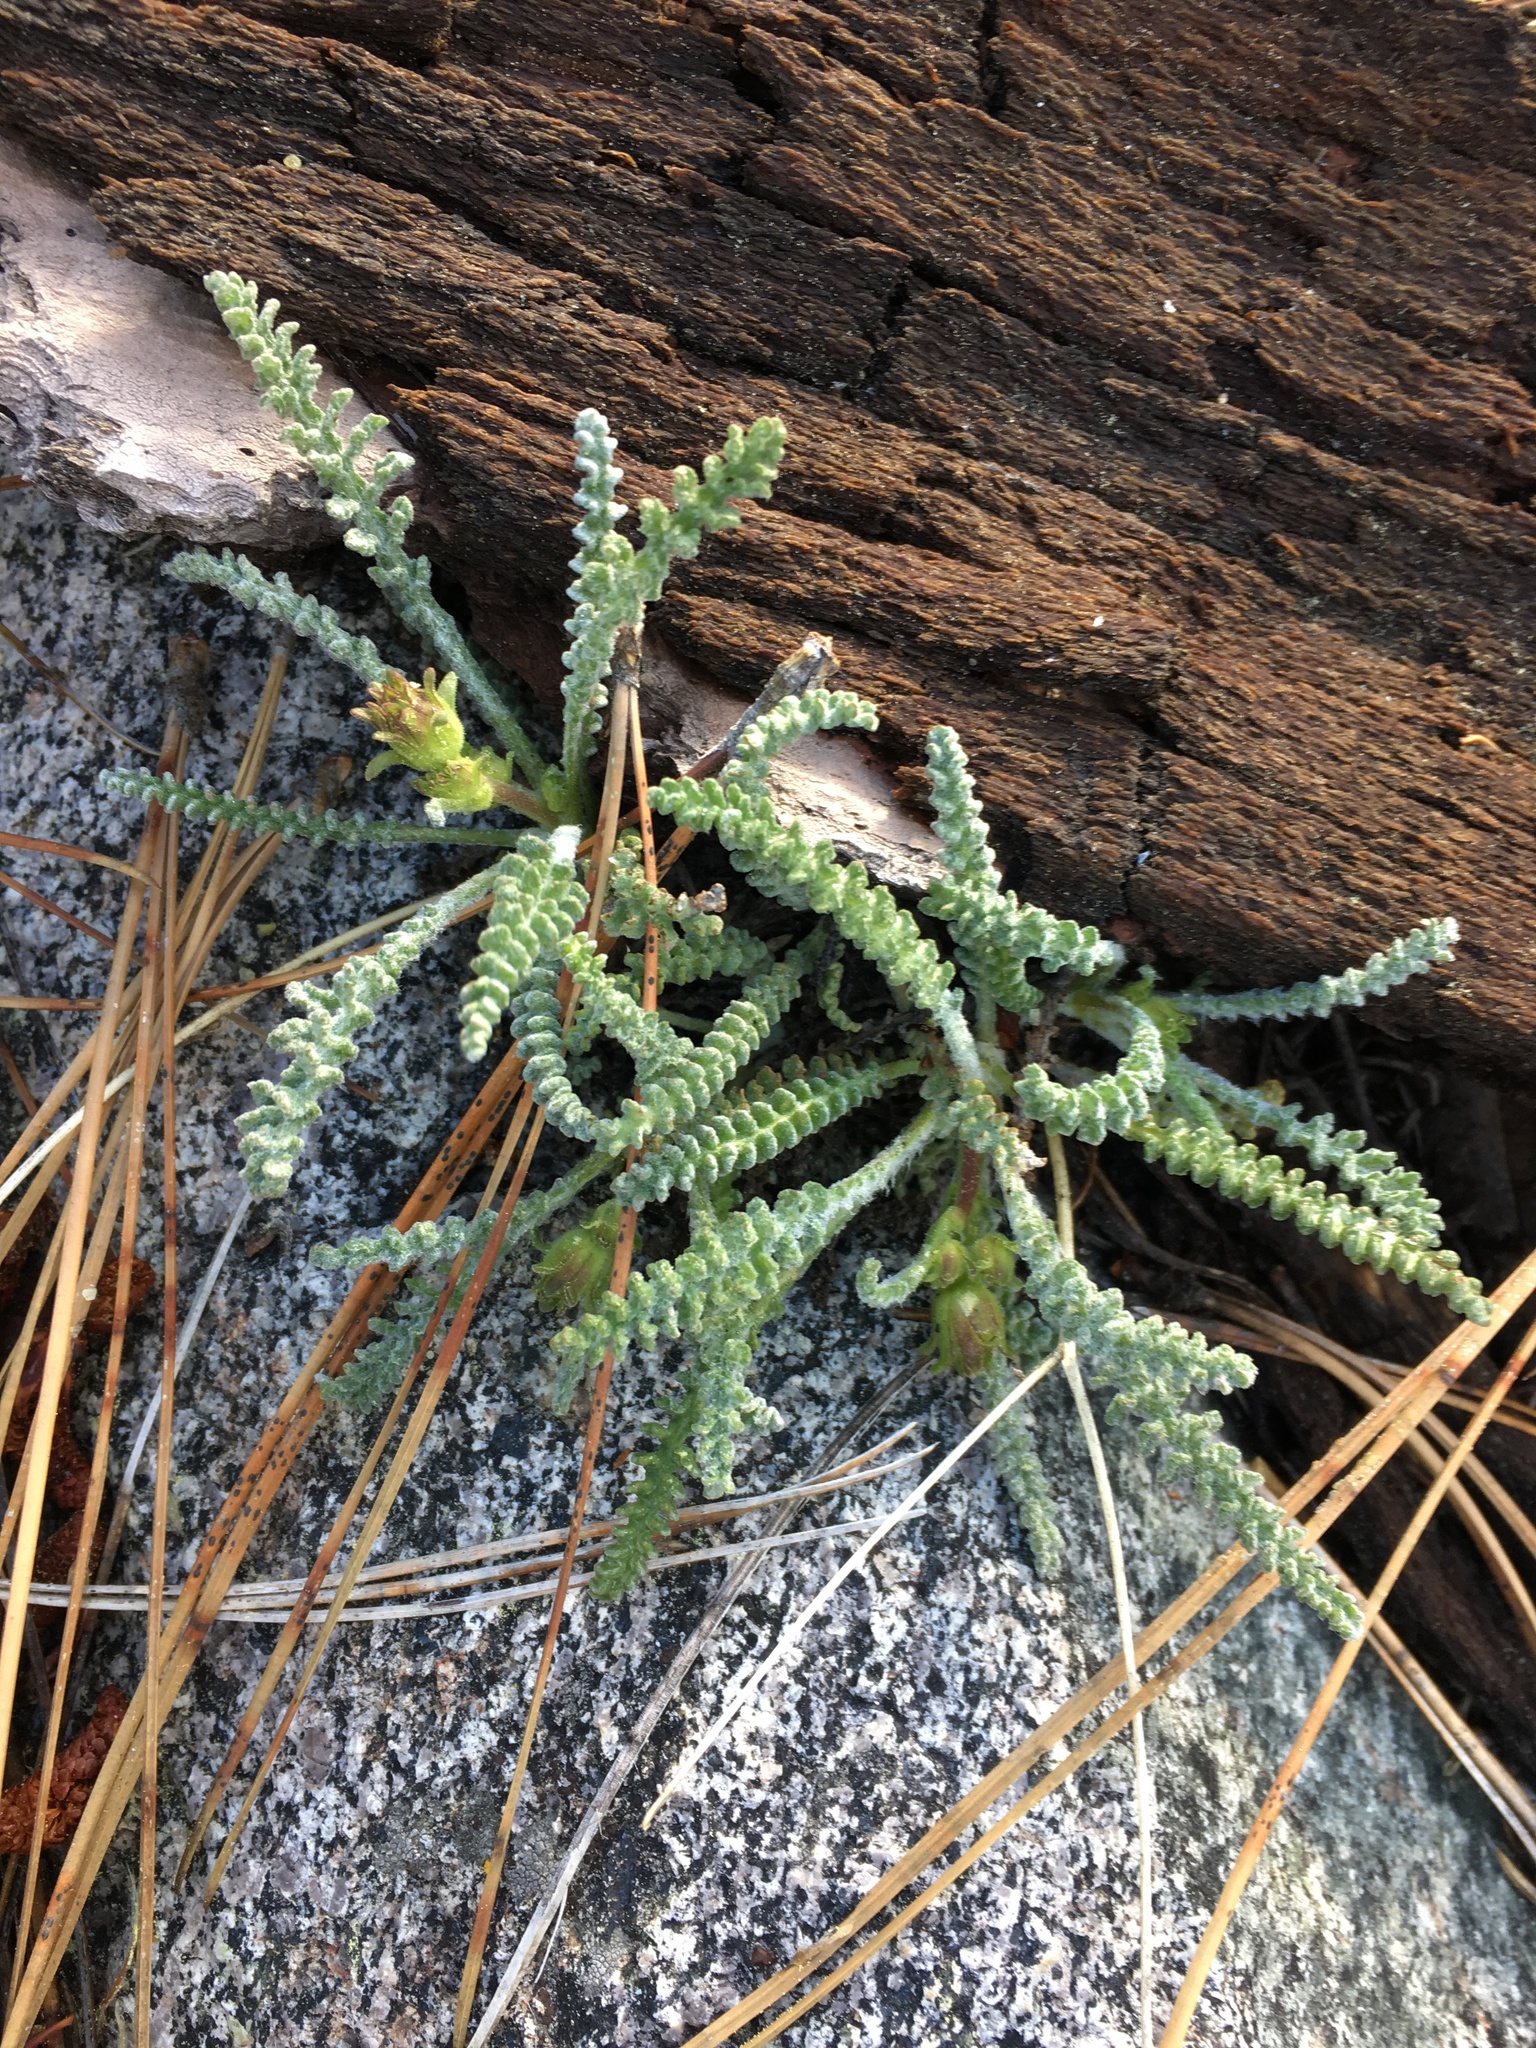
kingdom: Plantae
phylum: Tracheophyta
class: Magnoliopsida
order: Asterales
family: Asteraceae
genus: Chaenactis
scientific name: Chaenactis santolinoides
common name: Santolina pincushion
